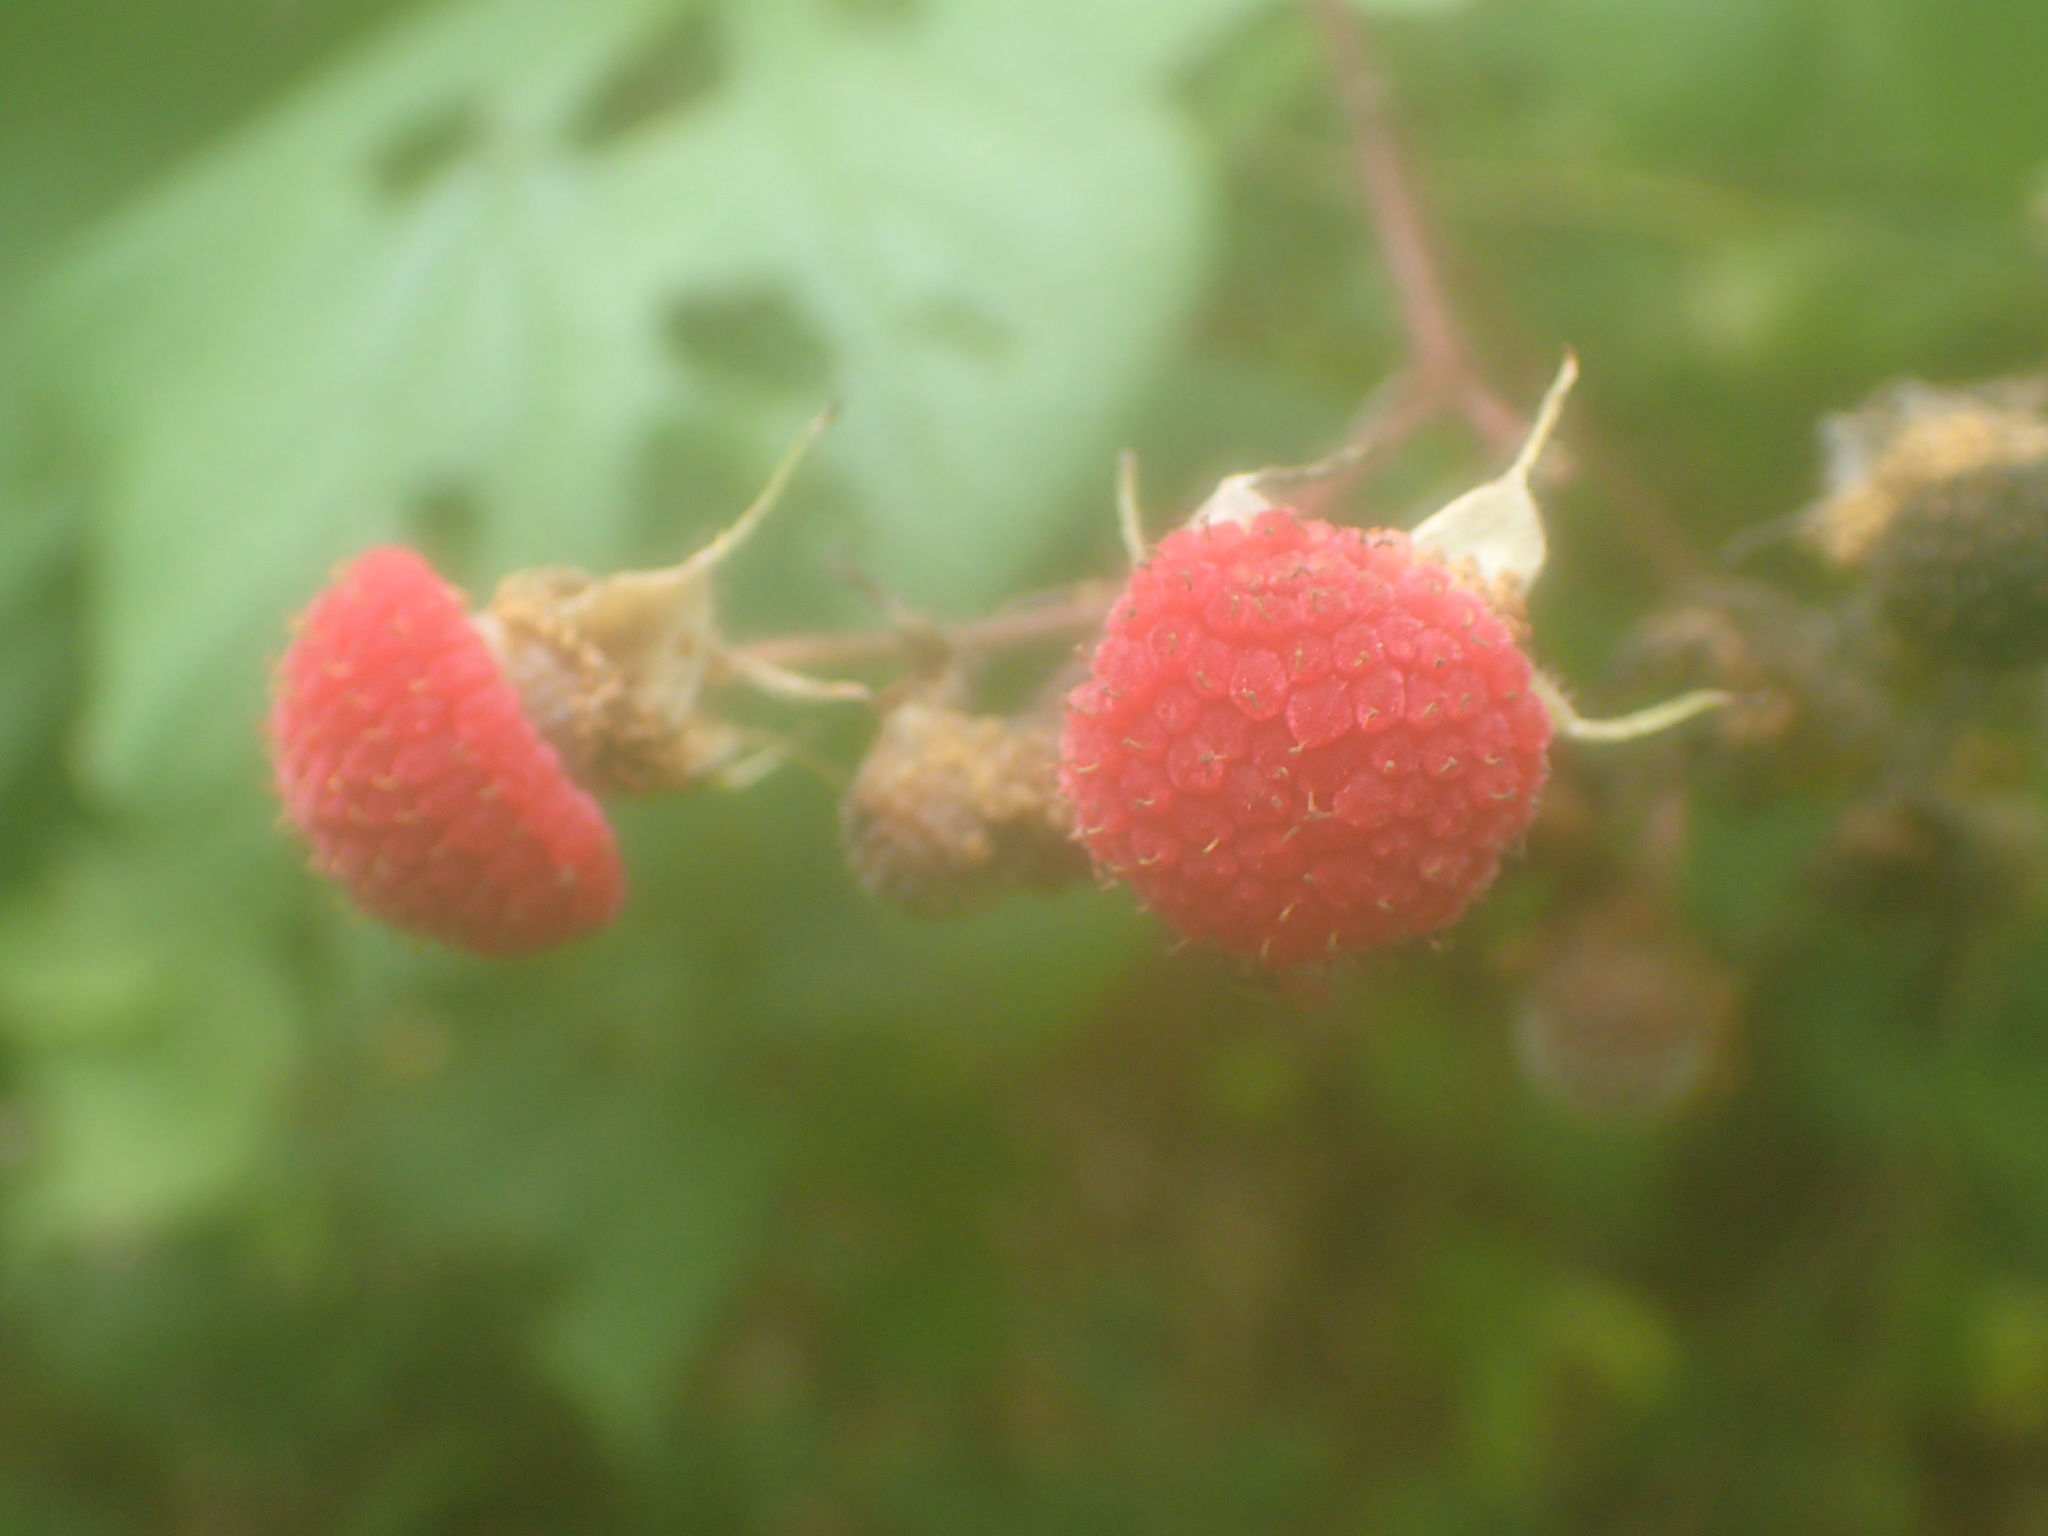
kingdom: Plantae
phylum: Tracheophyta
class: Magnoliopsida
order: Rosales
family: Rosaceae
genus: Rubus
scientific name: Rubus odoratus
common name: Purple-flowered raspberry
